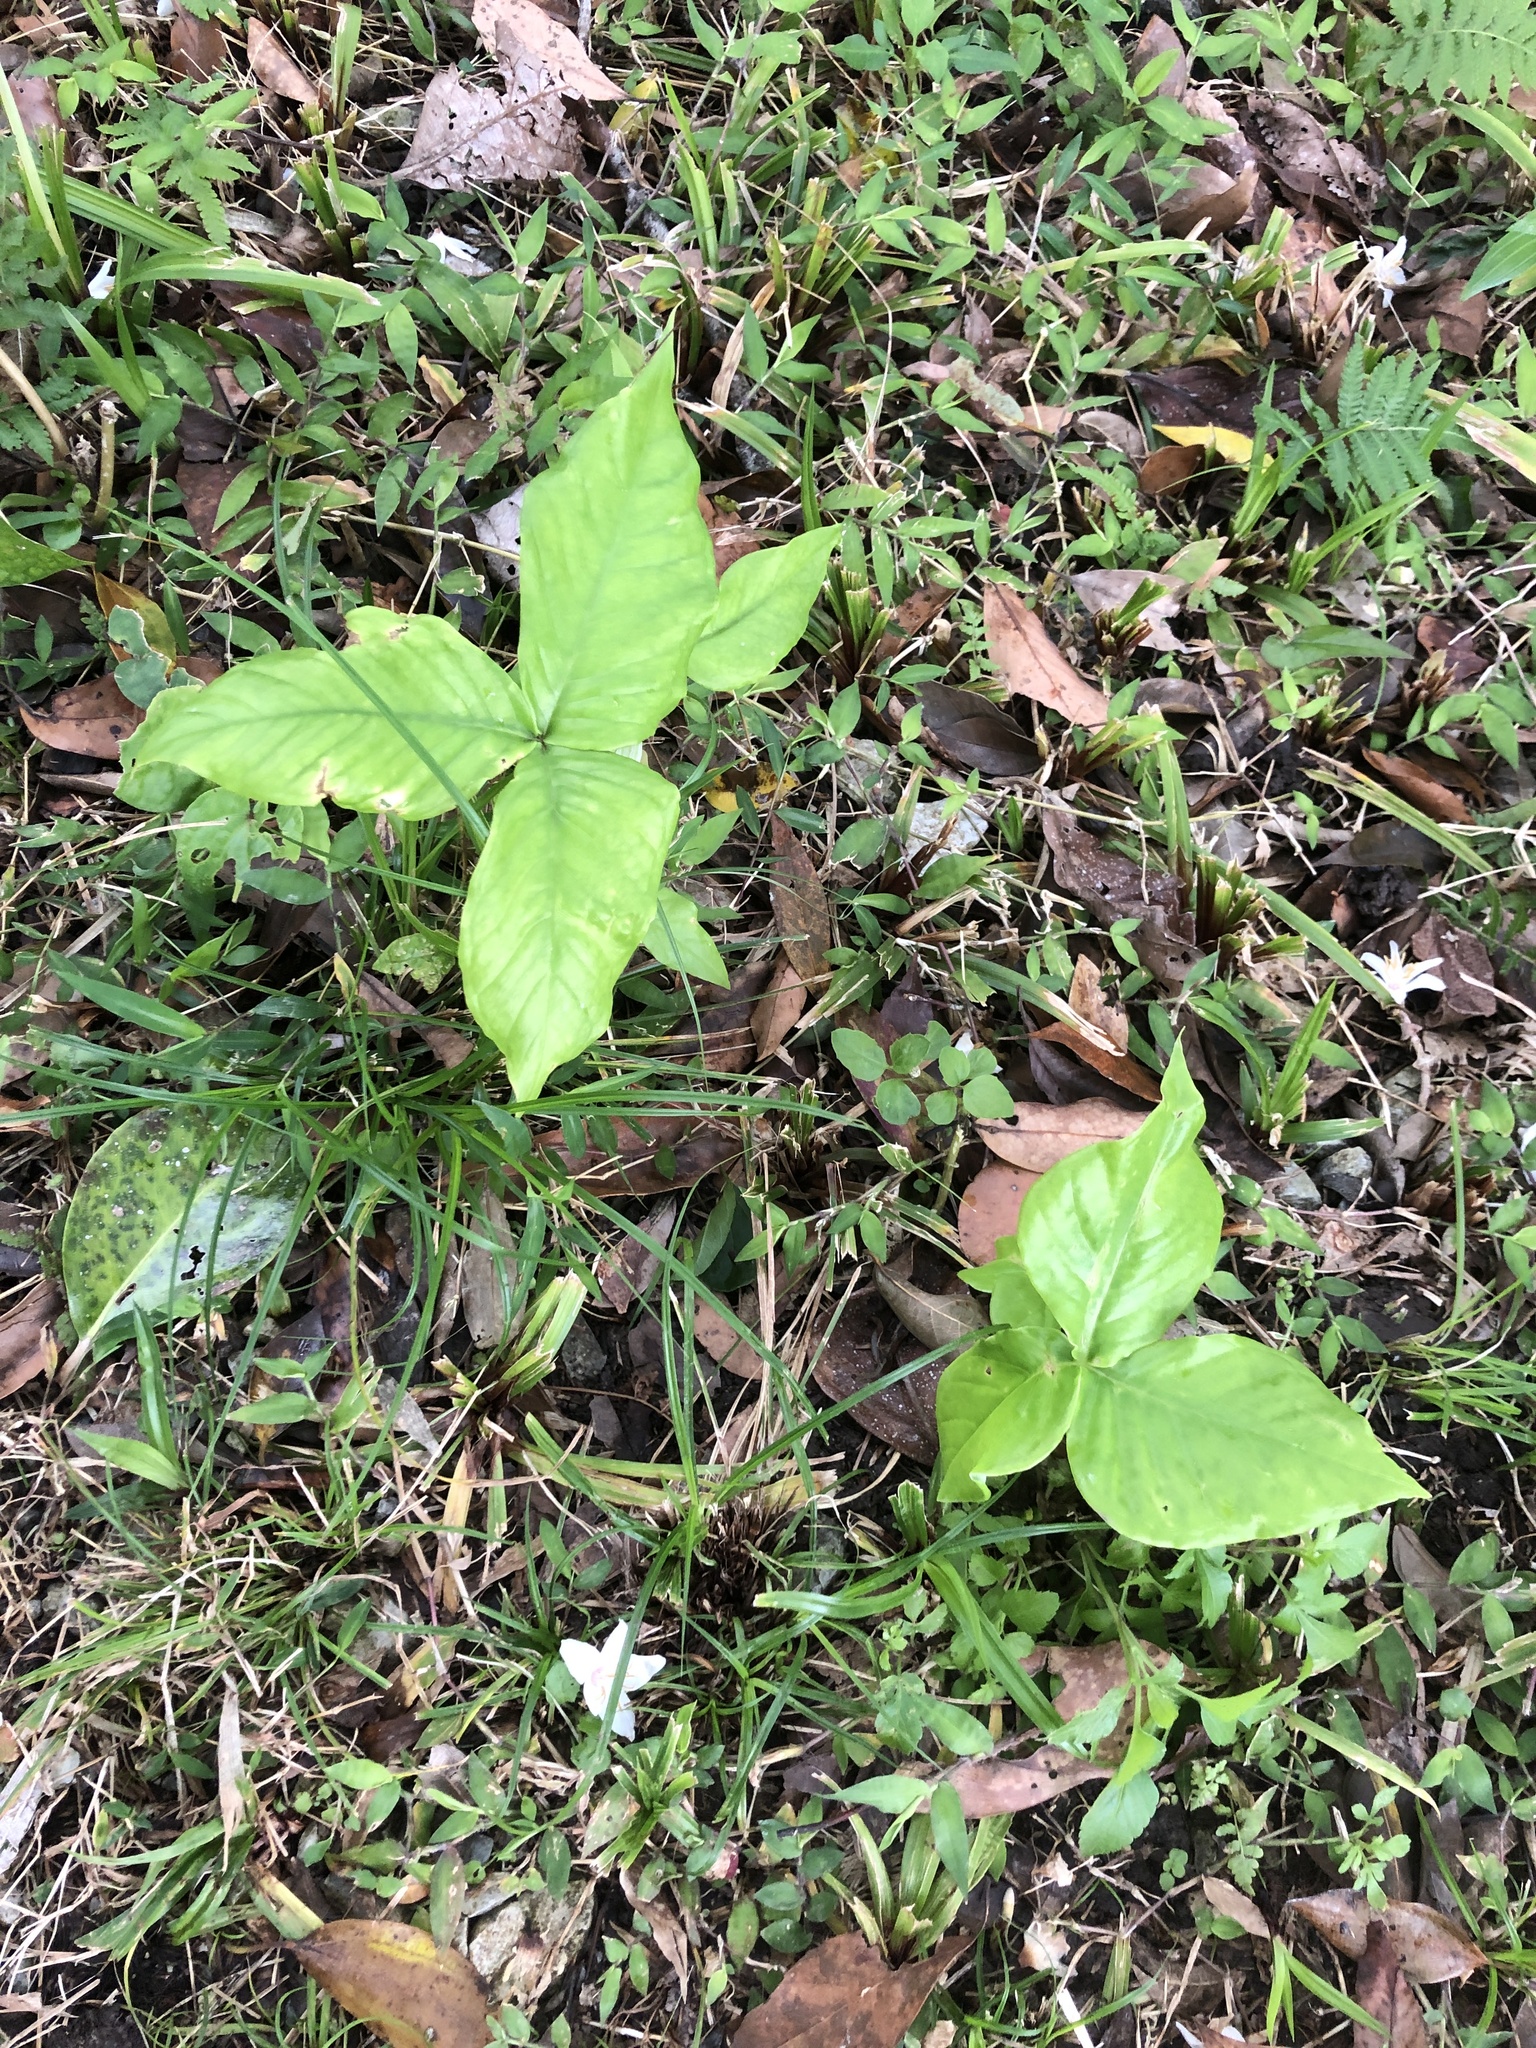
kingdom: Plantae
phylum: Tracheophyta
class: Liliopsida
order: Alismatales
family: Araceae
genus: Arisaema
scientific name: Arisaema ringens
